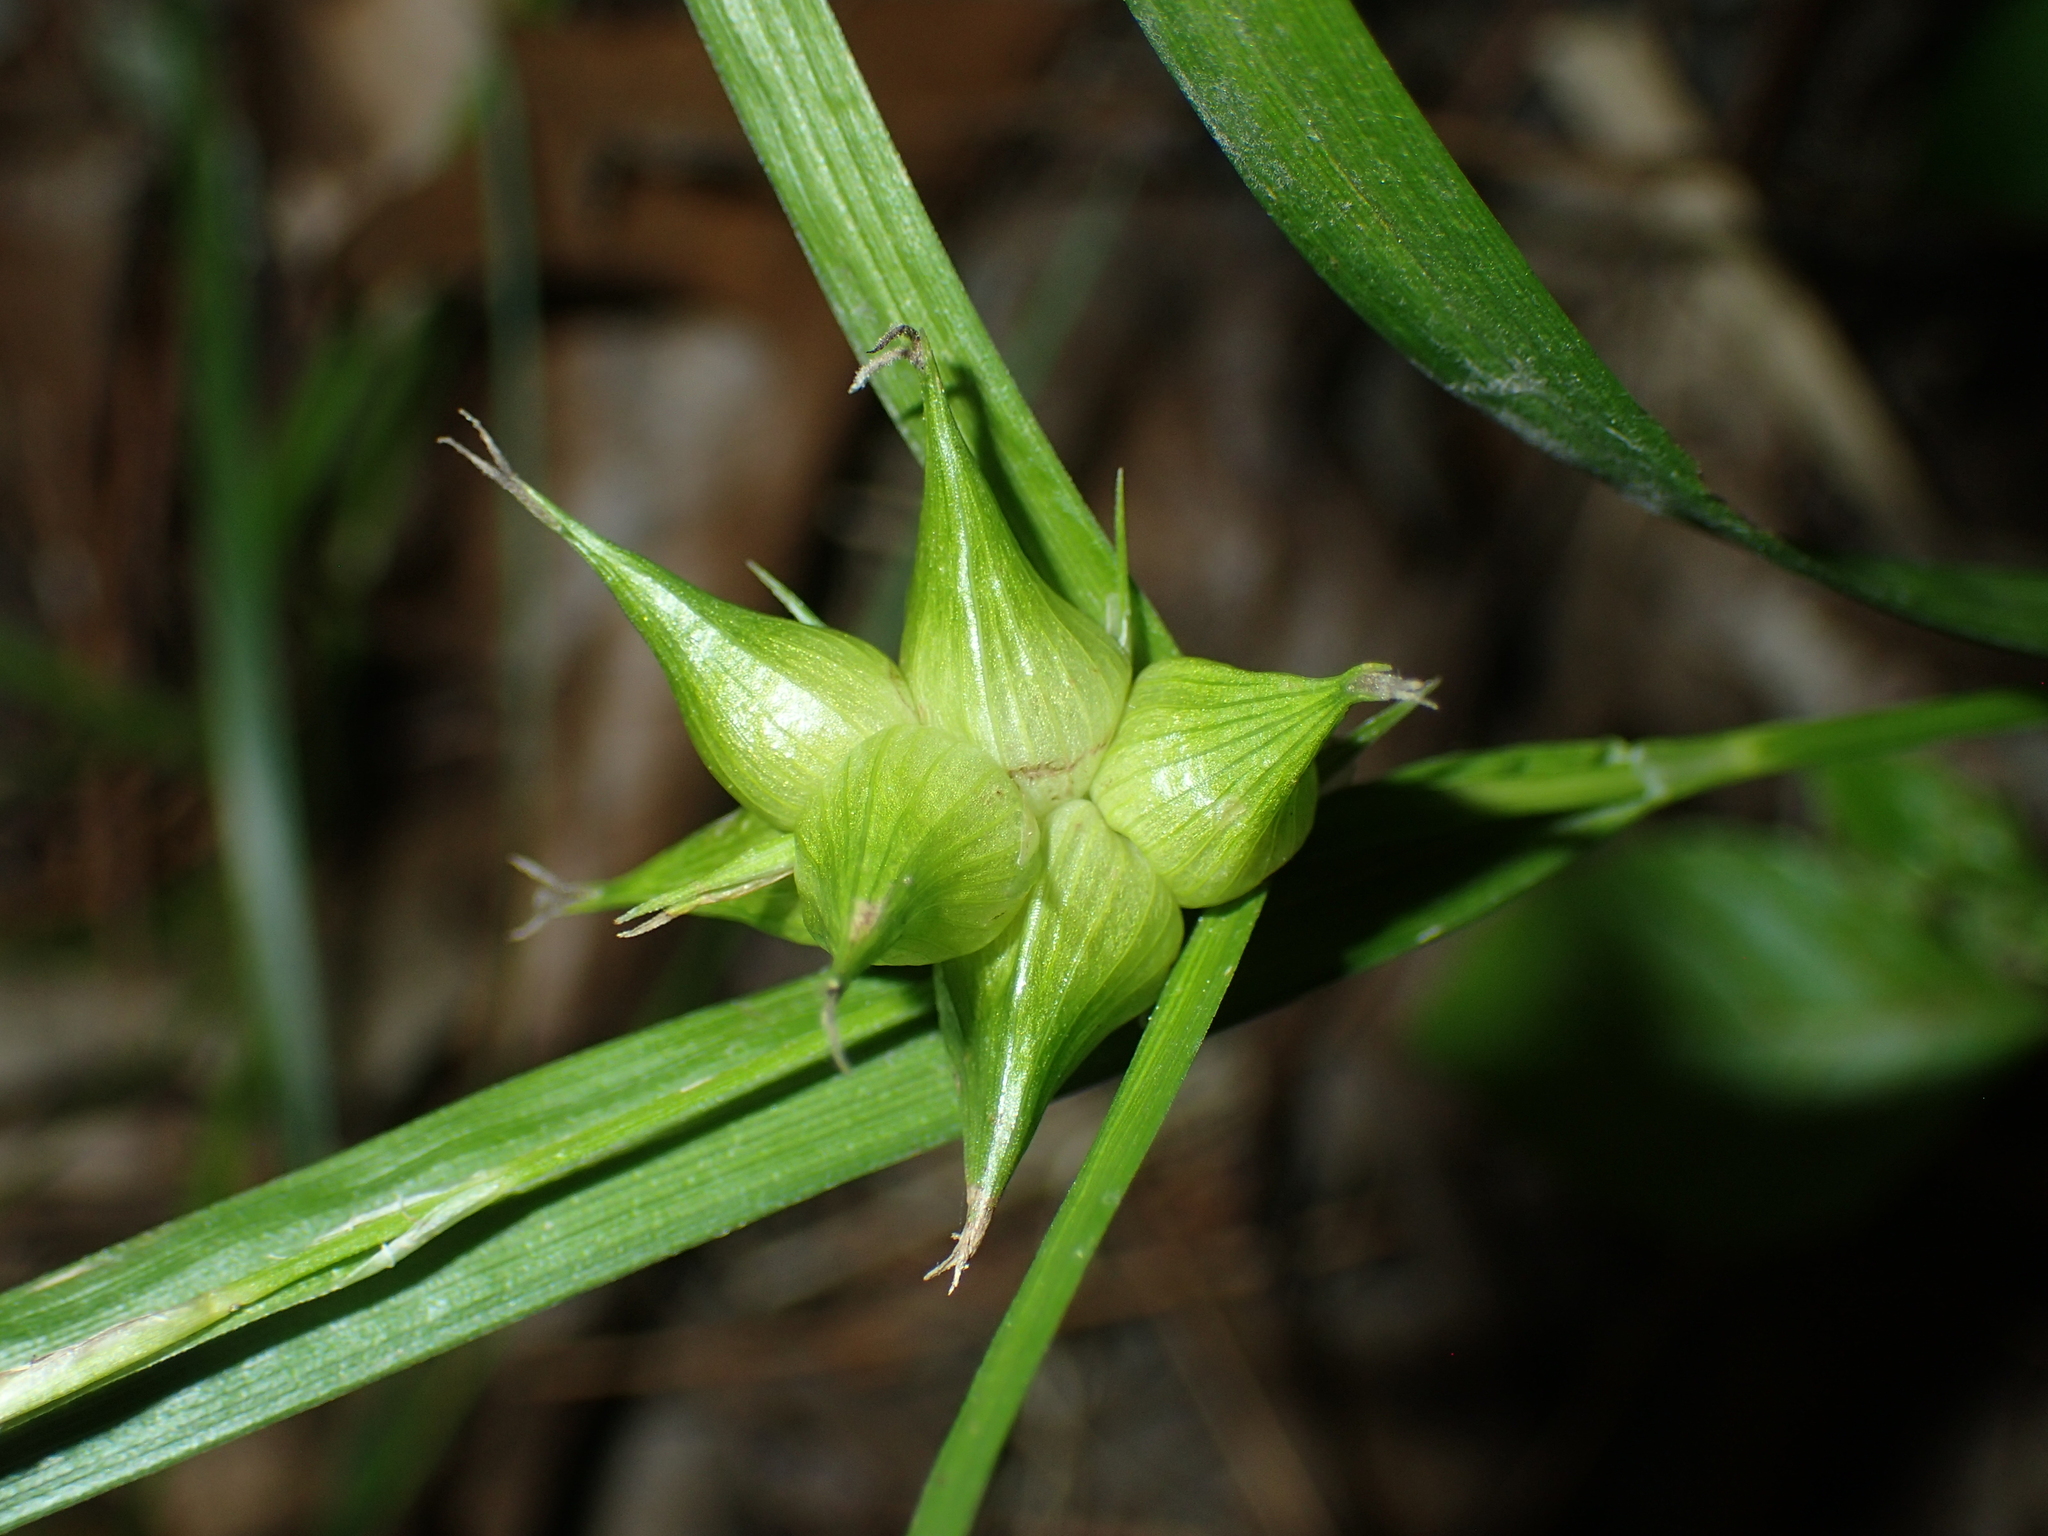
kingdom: Plantae
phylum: Tracheophyta
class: Liliopsida
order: Poales
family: Cyperaceae
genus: Carex
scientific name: Carex intumescens
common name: Greater bladder sedge
